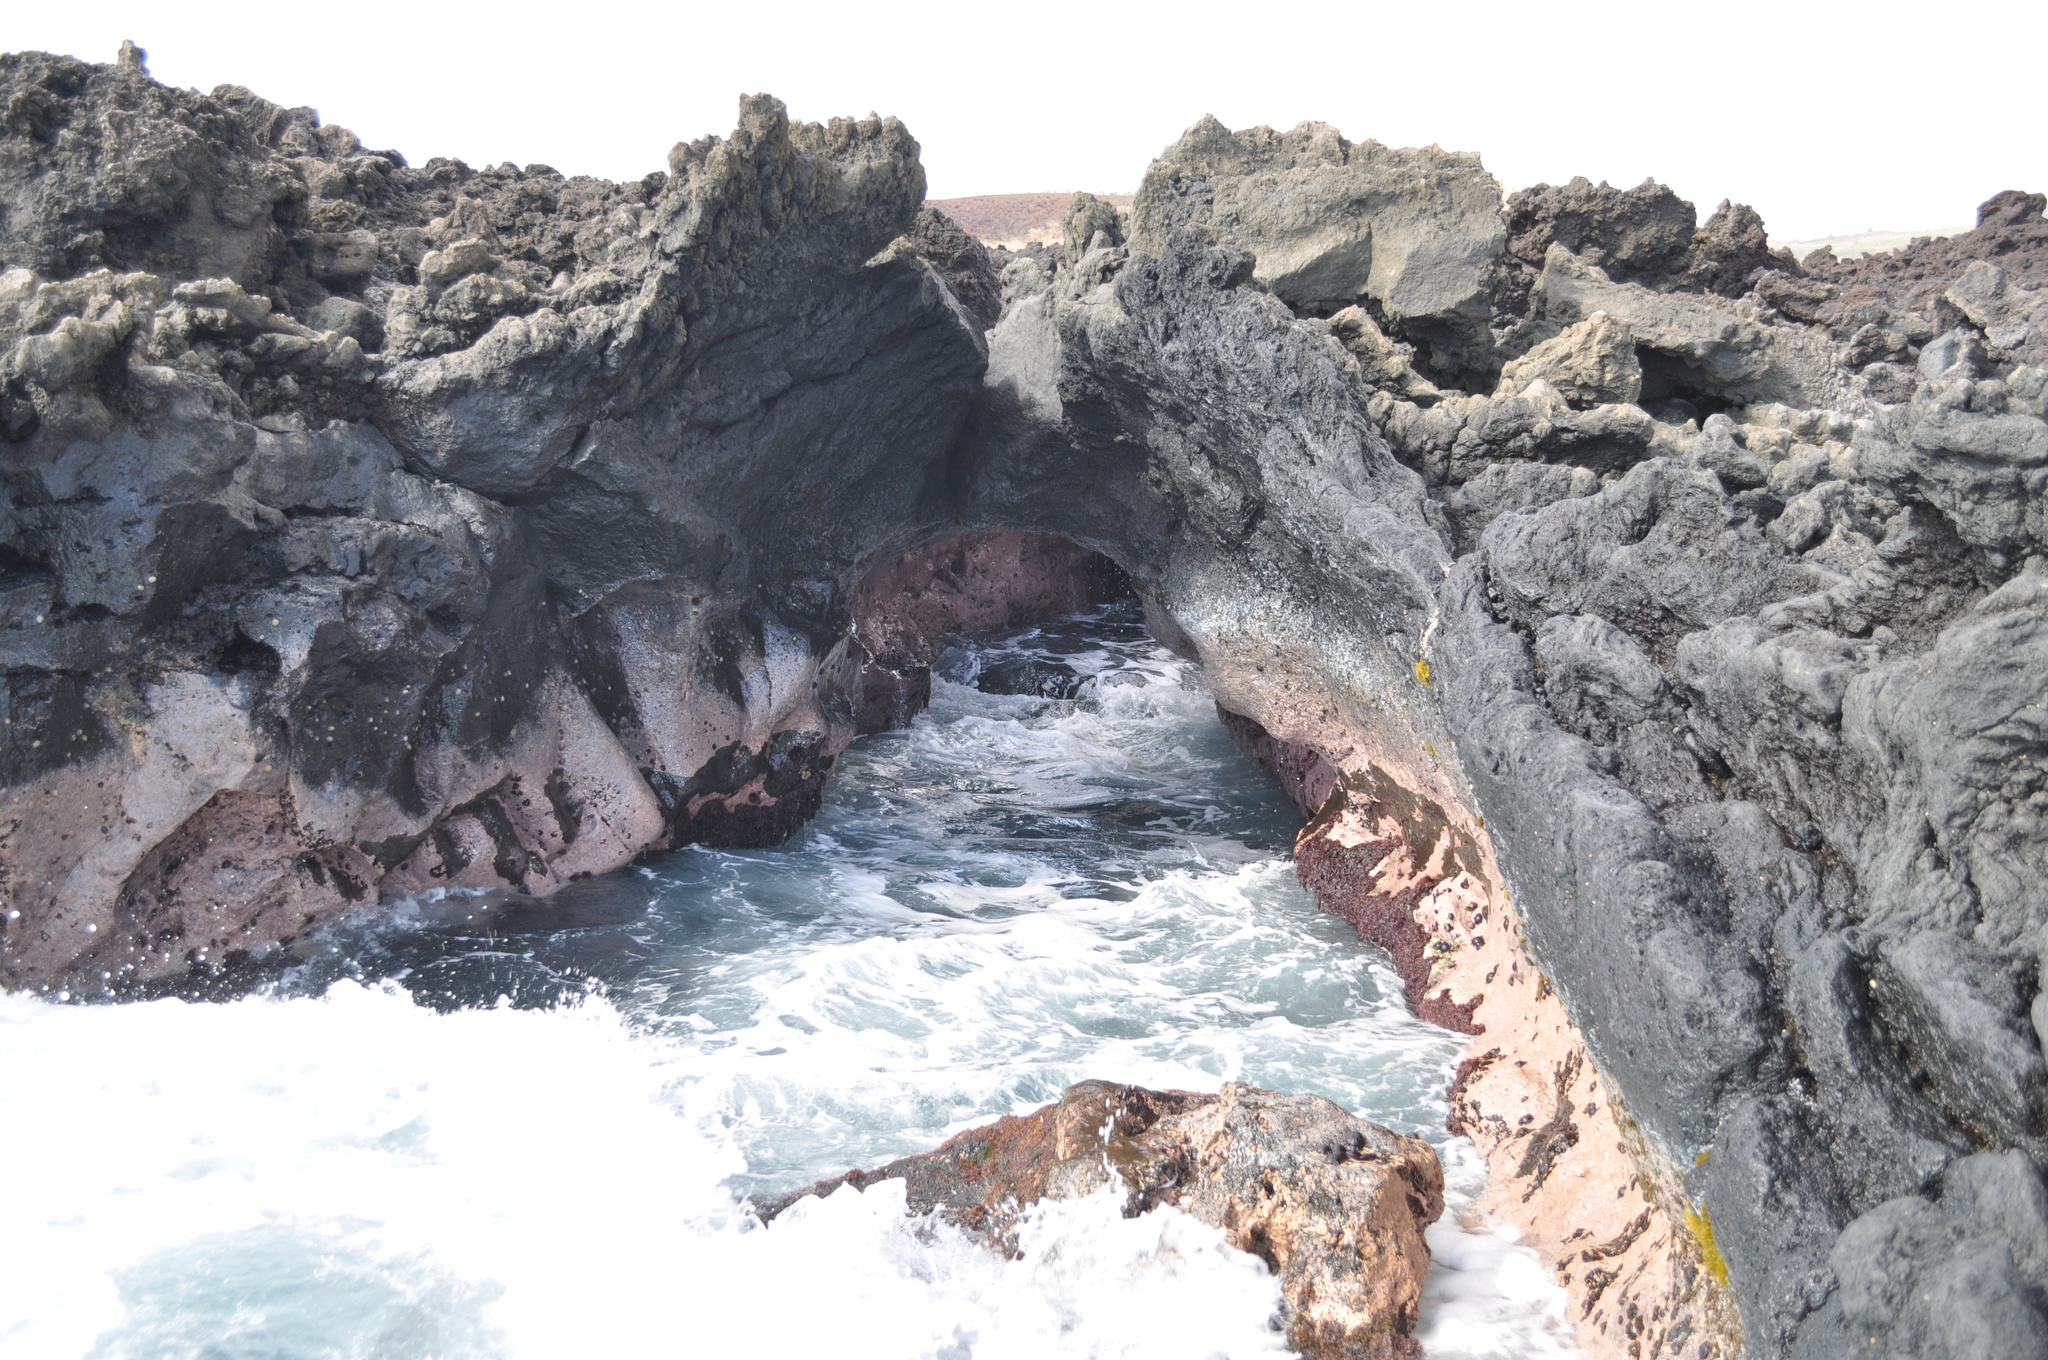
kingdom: Animalia
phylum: Chordata
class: Testudines
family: Cheloniidae
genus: Chelonia
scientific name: Chelonia mydas
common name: Green turtle
